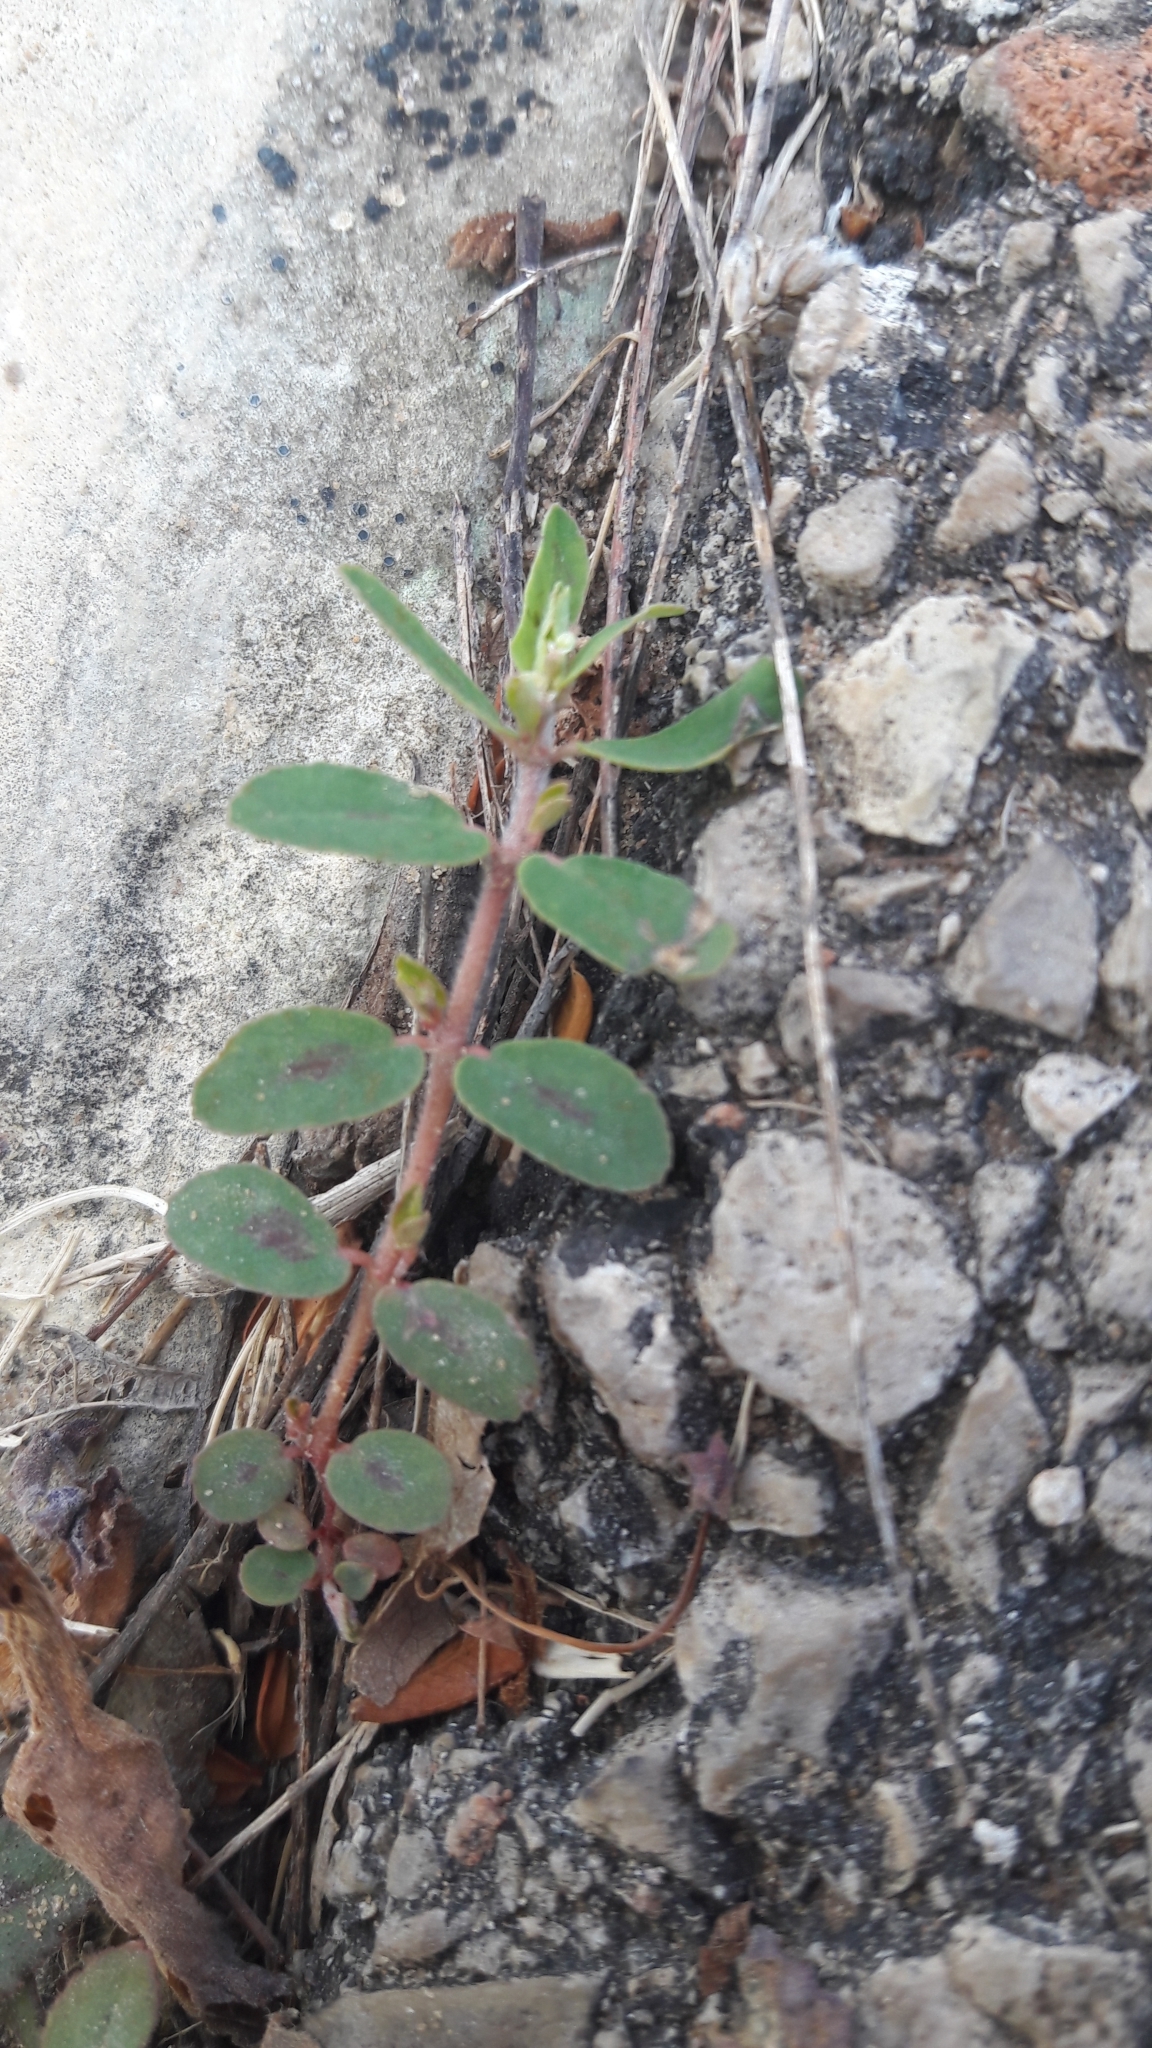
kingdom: Plantae
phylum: Tracheophyta
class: Magnoliopsida
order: Malpighiales
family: Euphorbiaceae
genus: Euphorbia
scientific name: Euphorbia maculata
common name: Spotted spurge
